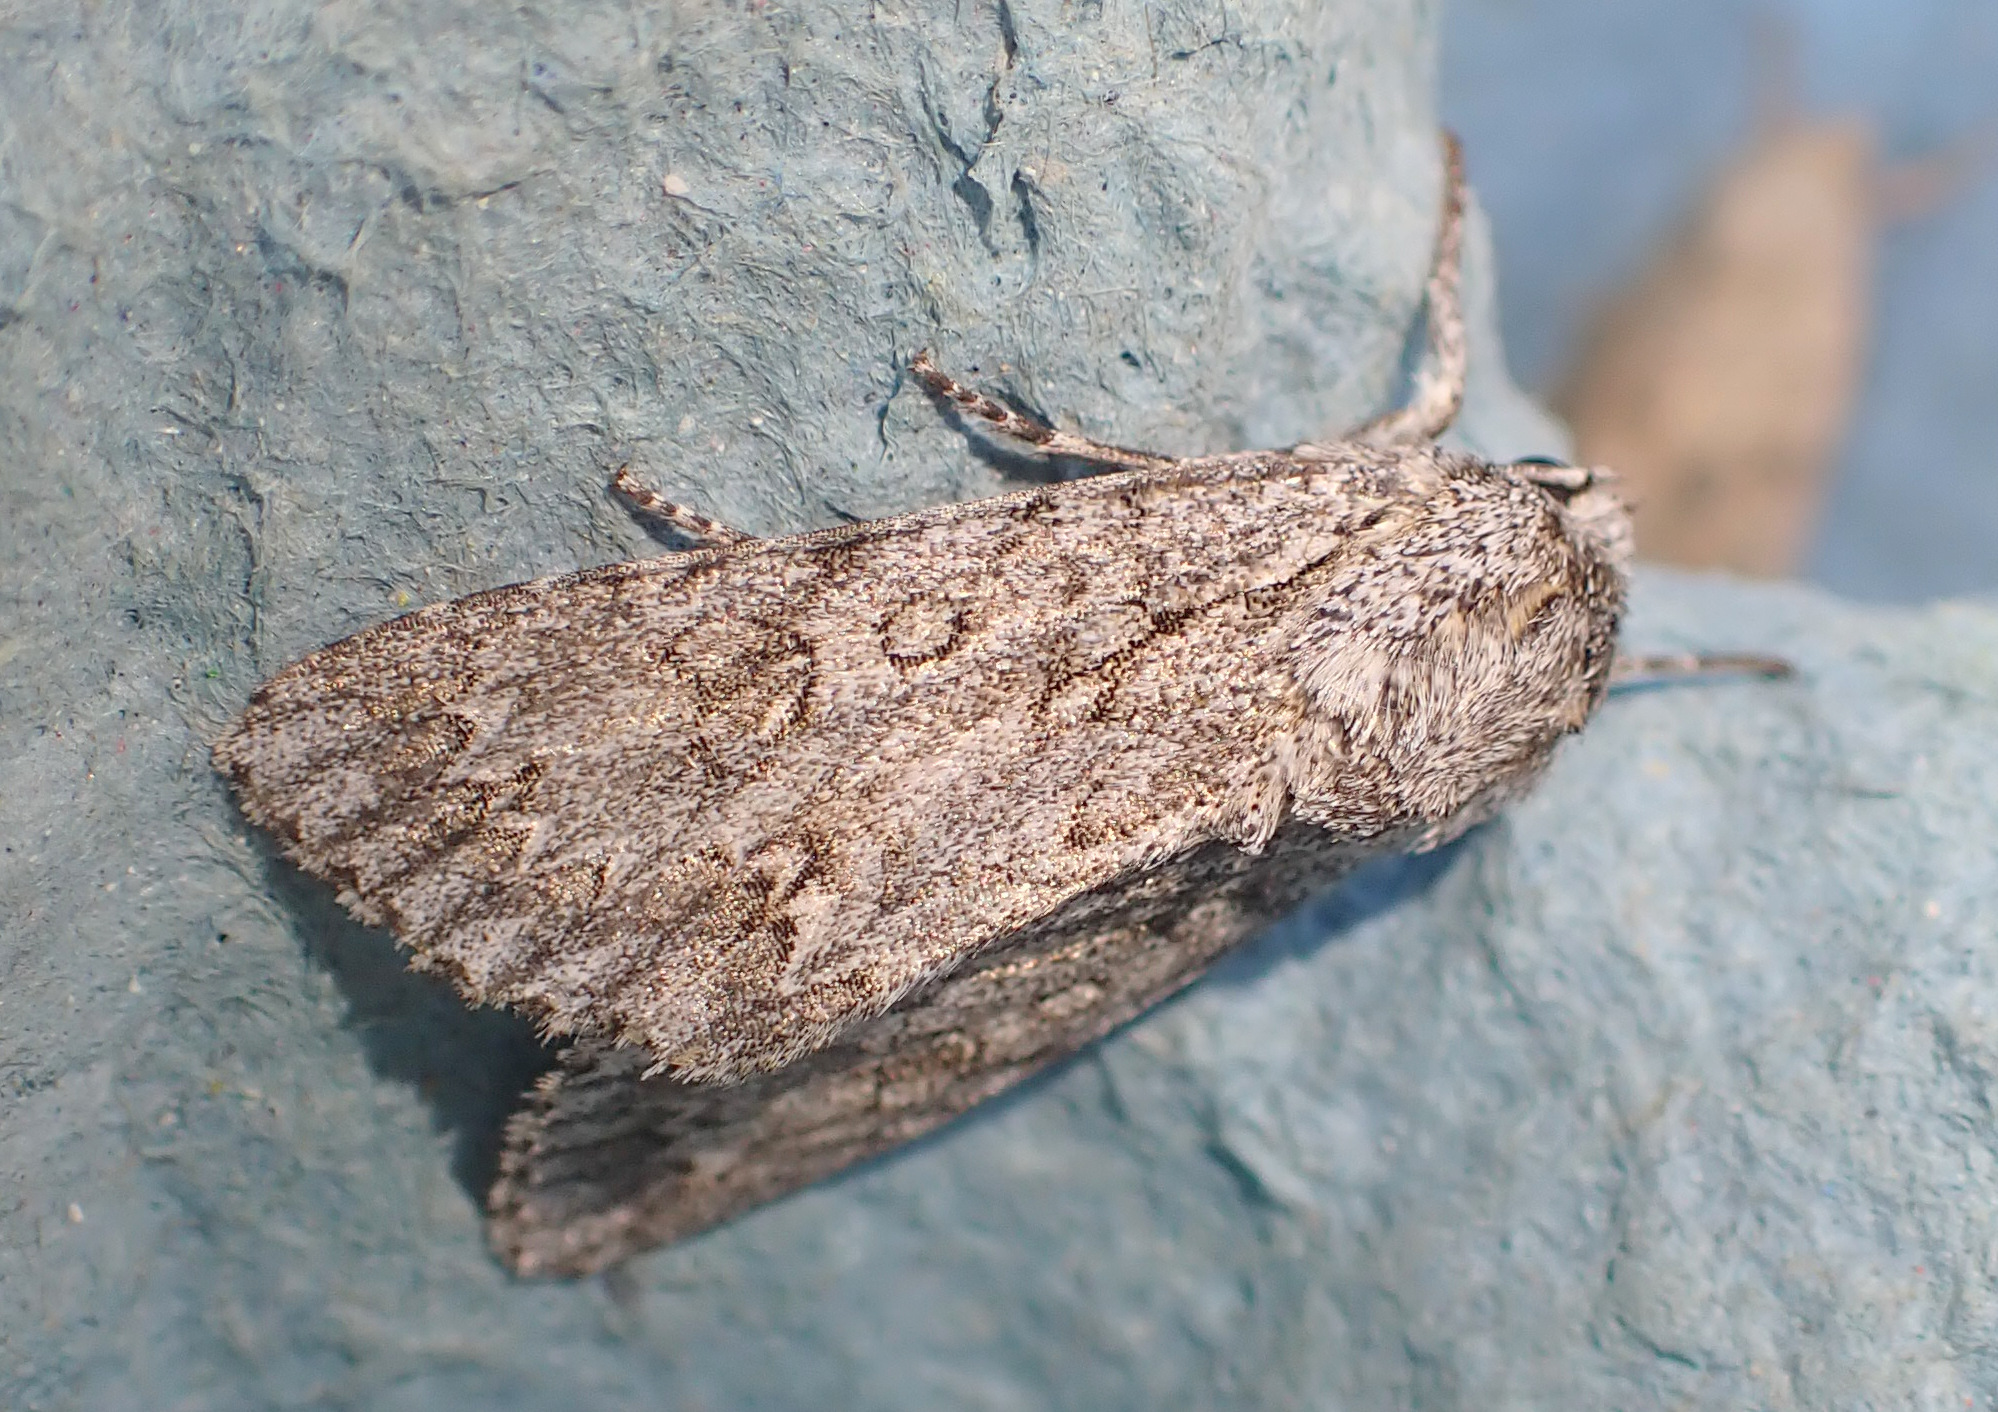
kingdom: Animalia
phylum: Arthropoda
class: Insecta
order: Lepidoptera
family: Noctuidae
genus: Acronicta
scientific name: Acronicta aceris
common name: Sycamore
